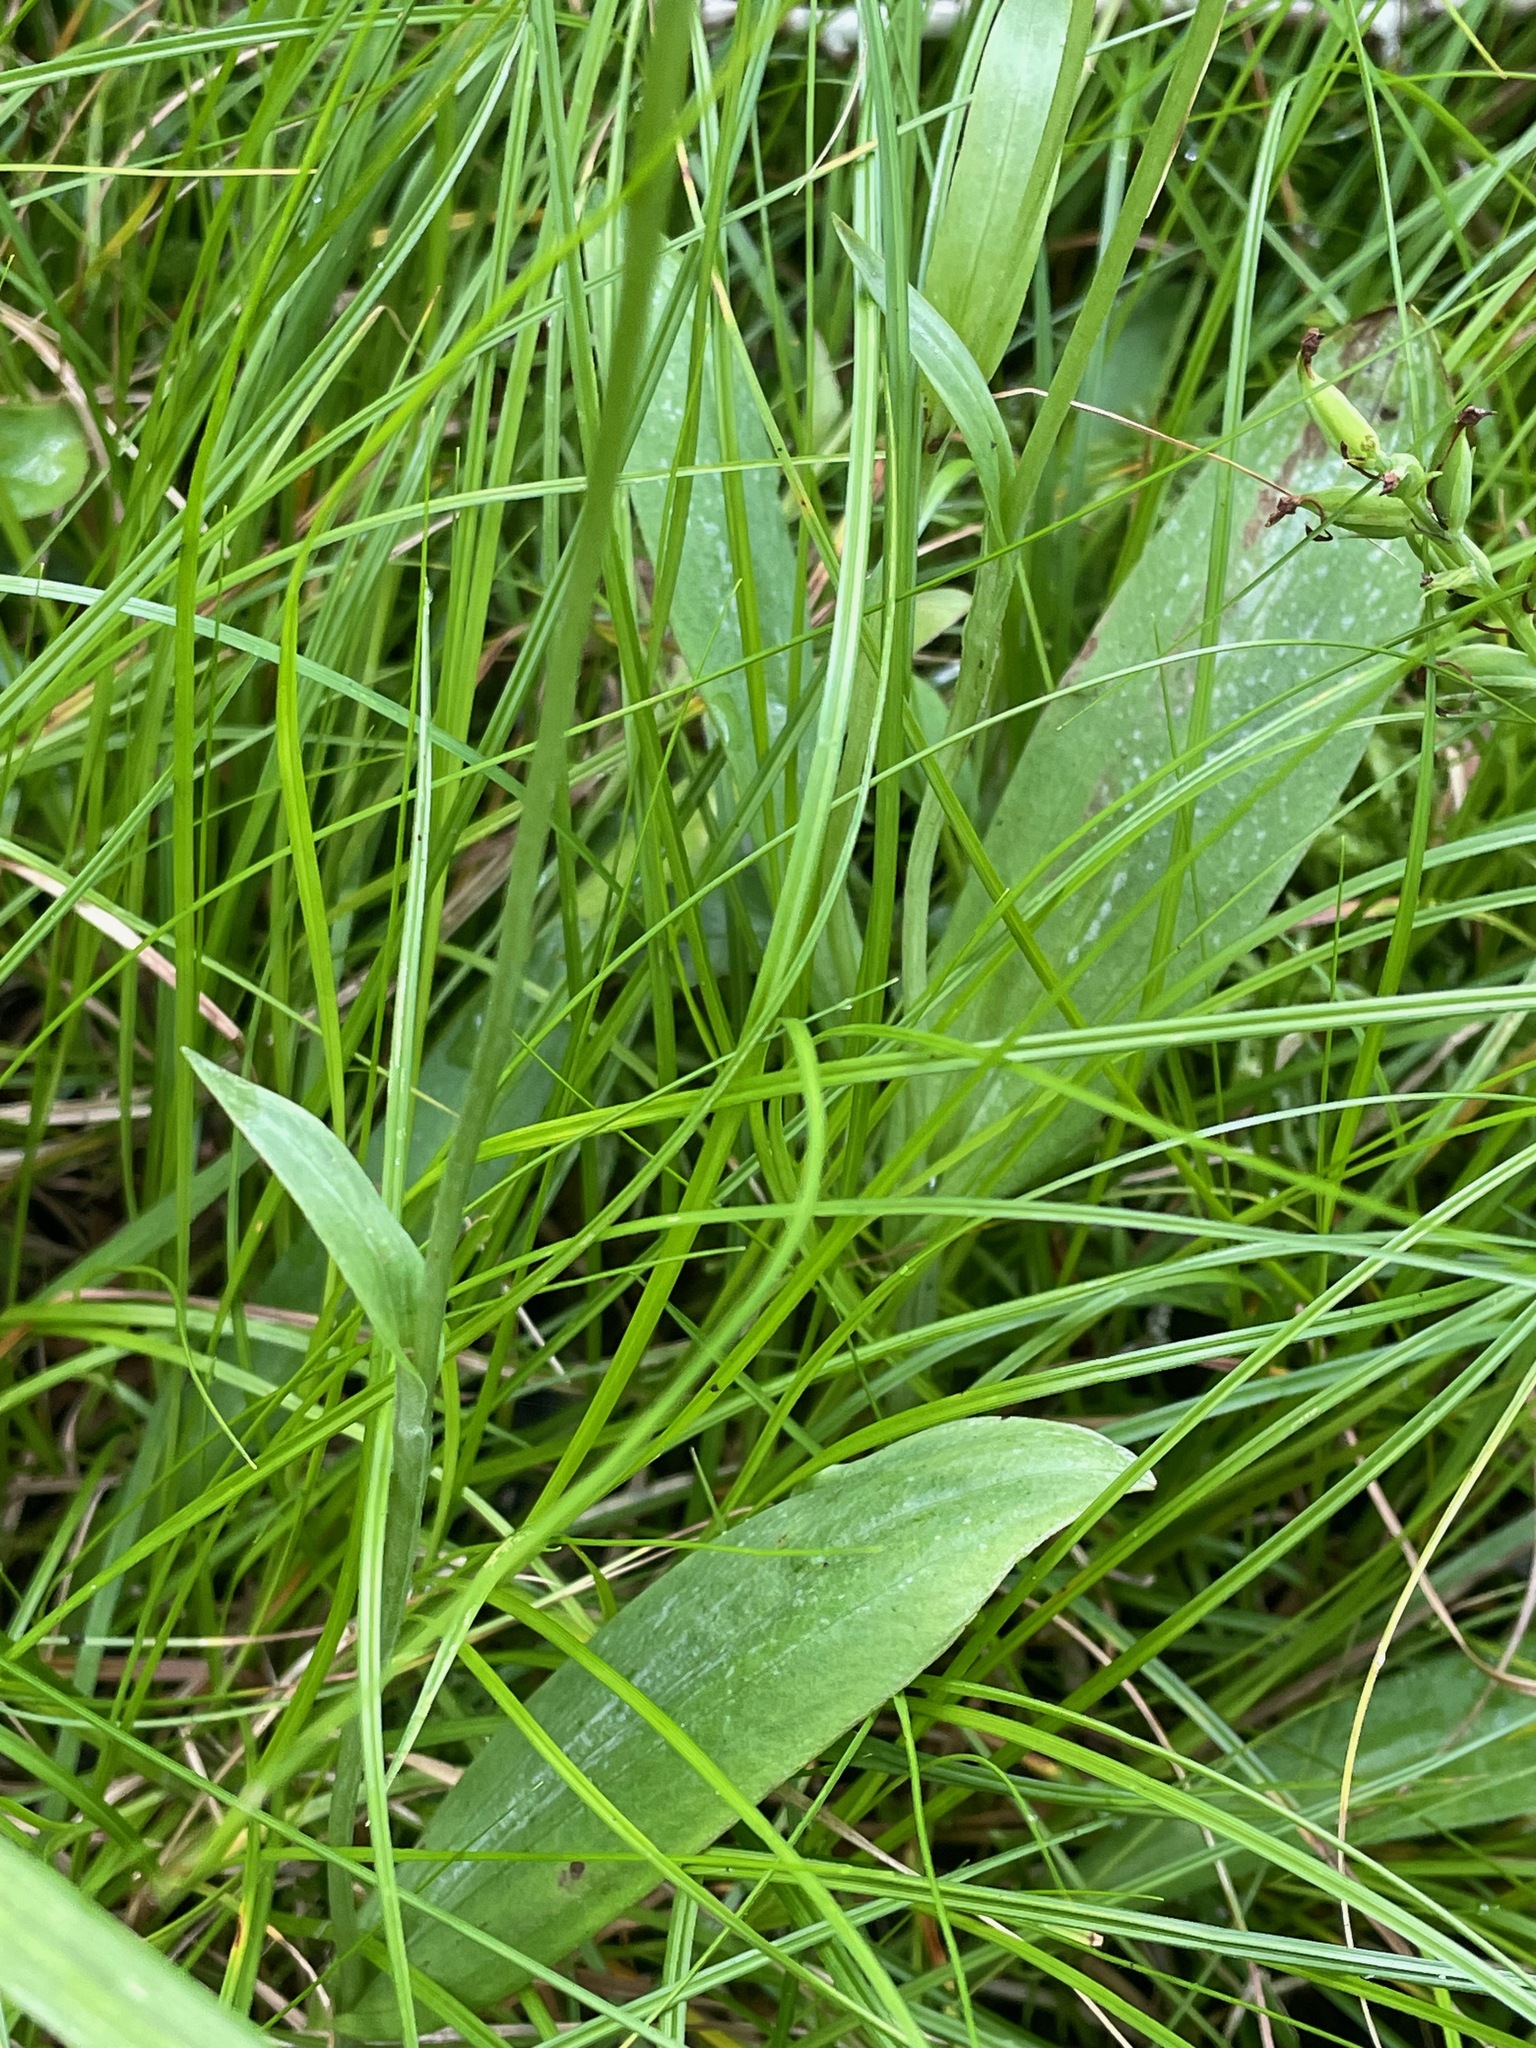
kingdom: Plantae
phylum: Tracheophyta
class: Liliopsida
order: Asparagales
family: Orchidaceae
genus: Platanthera
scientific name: Platanthera clavellata
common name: Club-spur orchid
